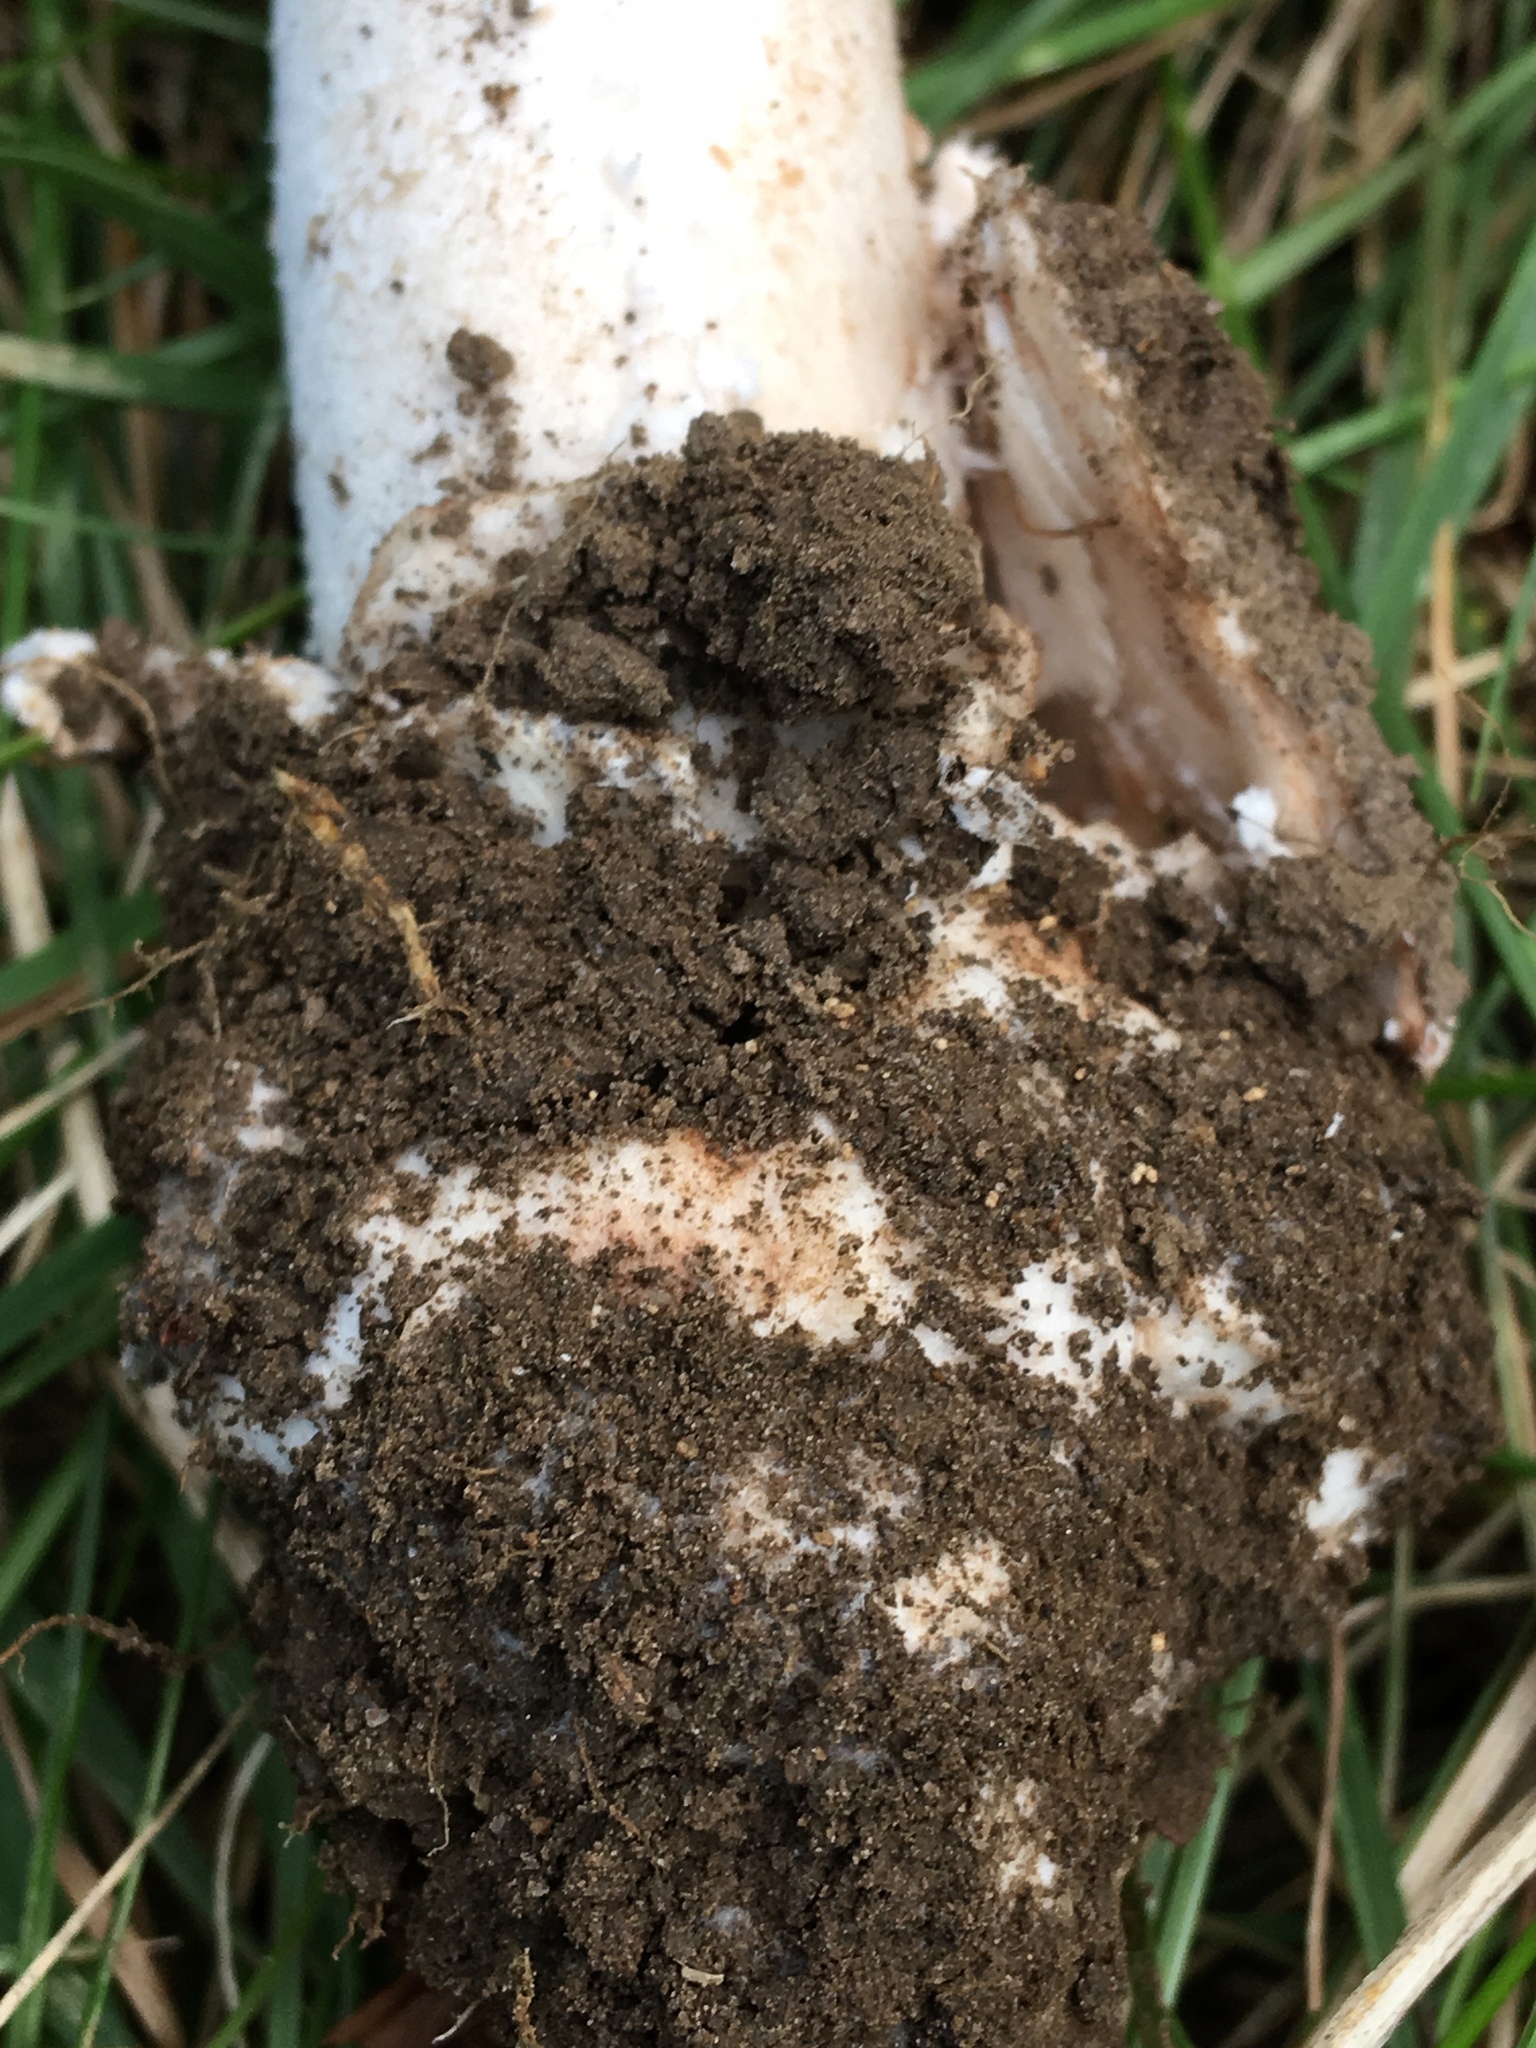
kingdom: Fungi
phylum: Basidiomycota
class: Agaricomycetes
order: Agaricales
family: Amanitaceae
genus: Amanita
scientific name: Amanita volvata
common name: American amidella
